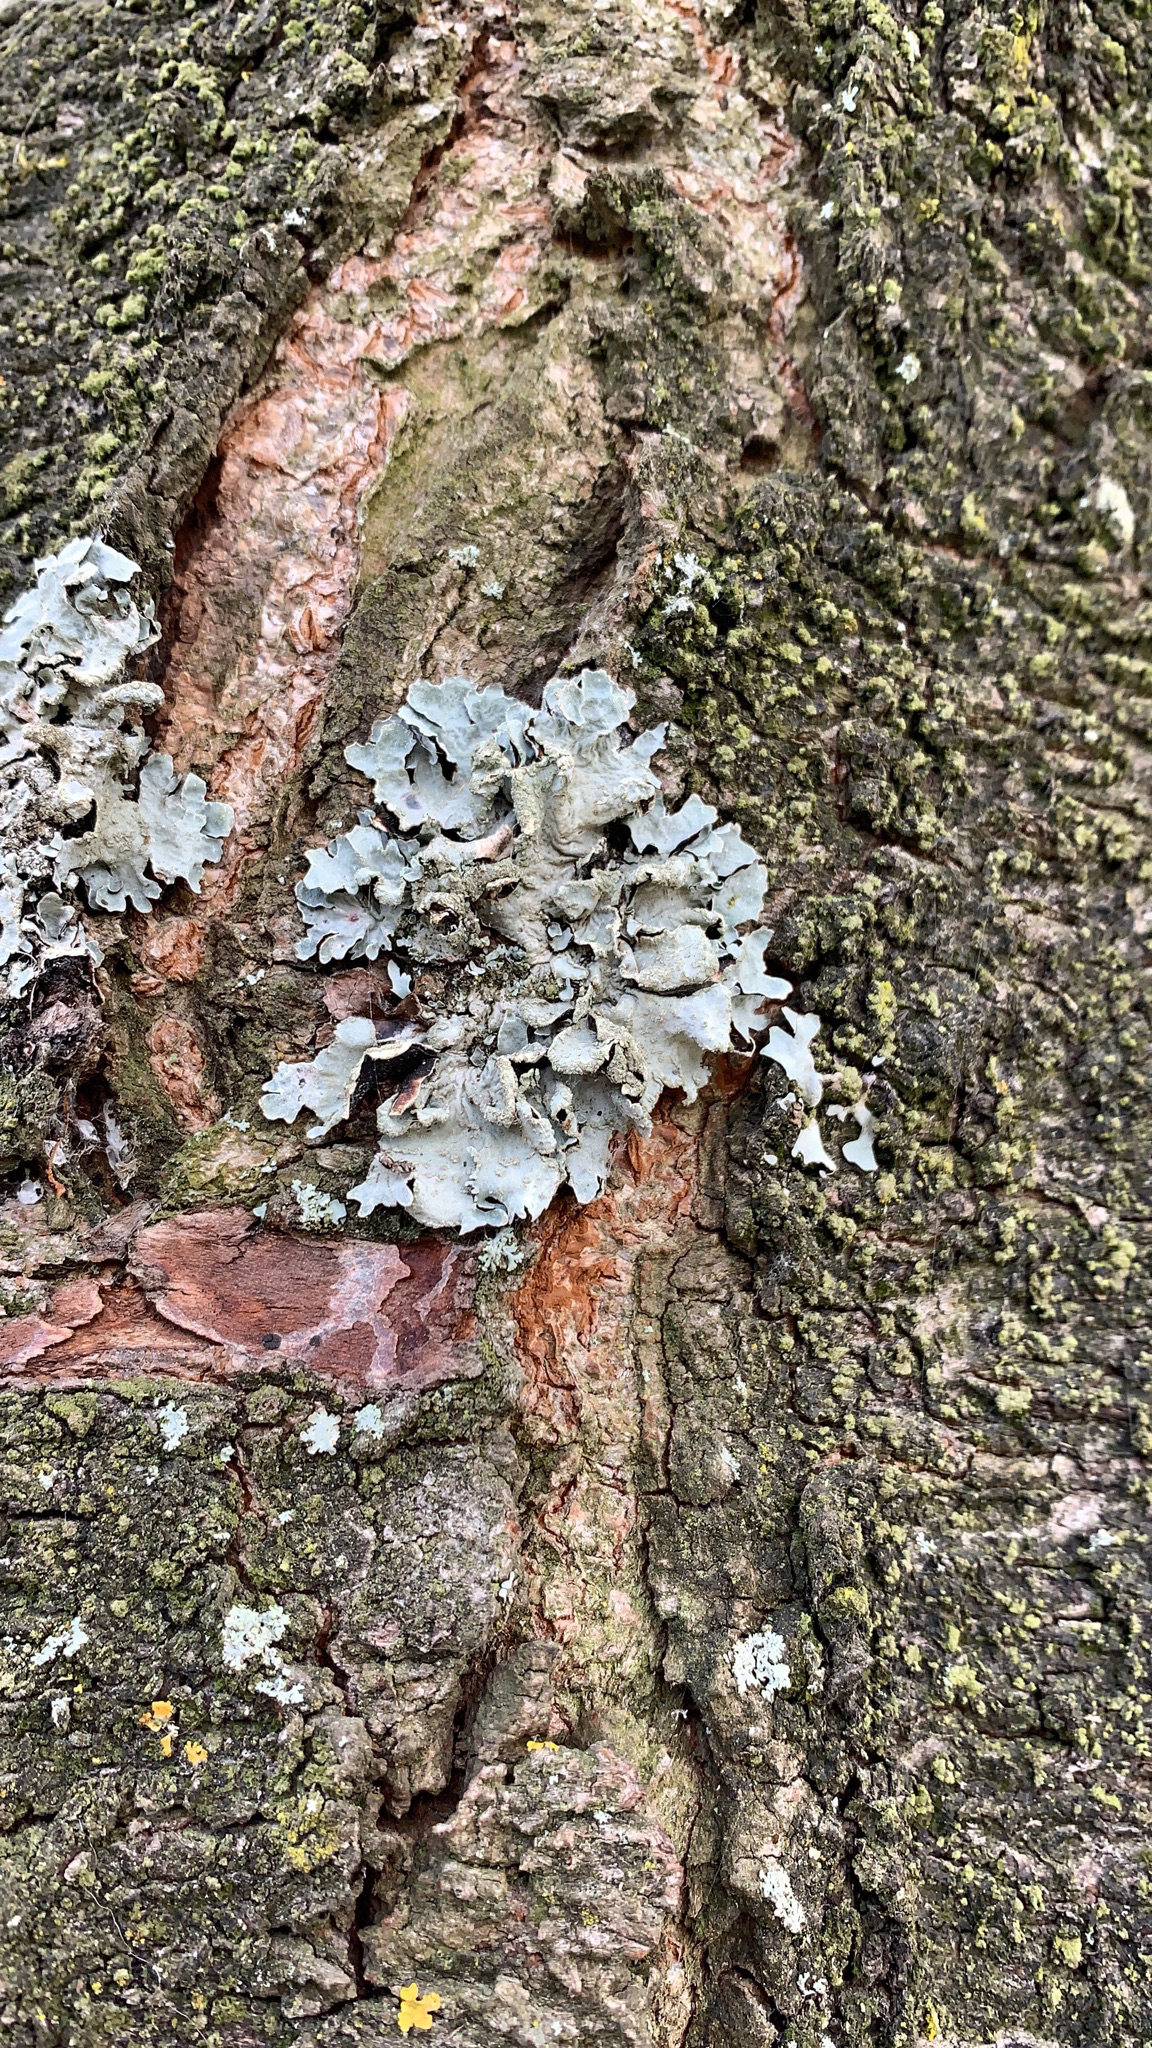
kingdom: Fungi
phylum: Ascomycota
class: Lecanoromycetes
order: Lecanorales
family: Parmeliaceae
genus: Parmelia
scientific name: Parmelia sulcata
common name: Netted shield lichen
